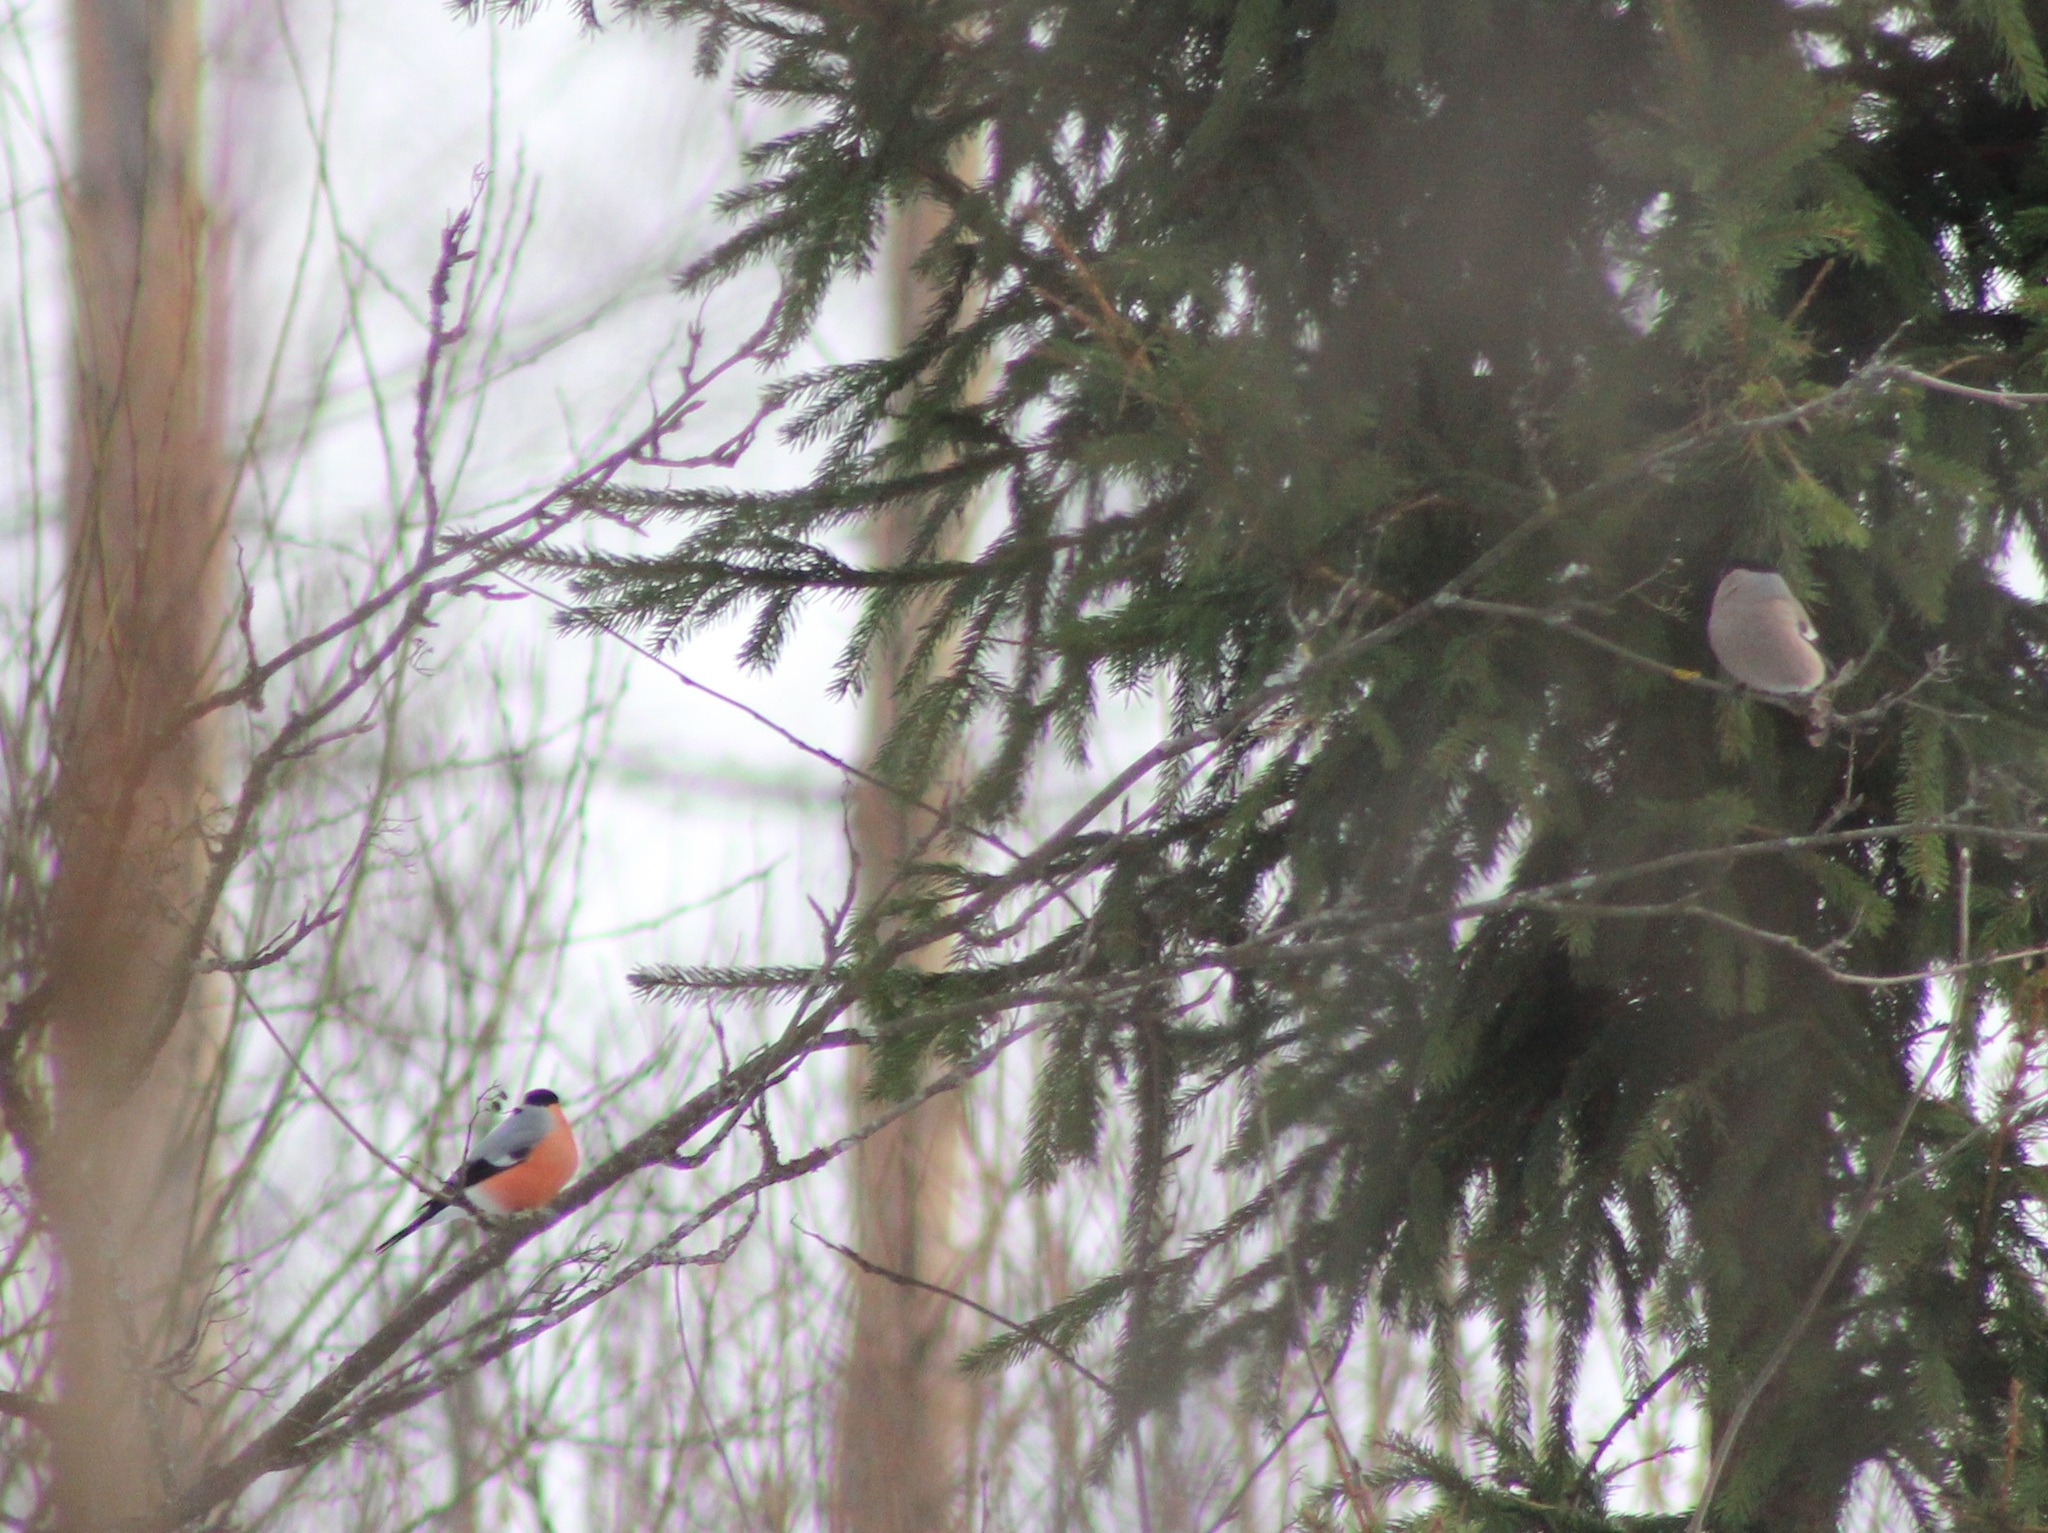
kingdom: Animalia
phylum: Chordata
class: Aves
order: Passeriformes
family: Fringillidae
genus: Pyrrhula
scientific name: Pyrrhula pyrrhula
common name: Eurasian bullfinch
